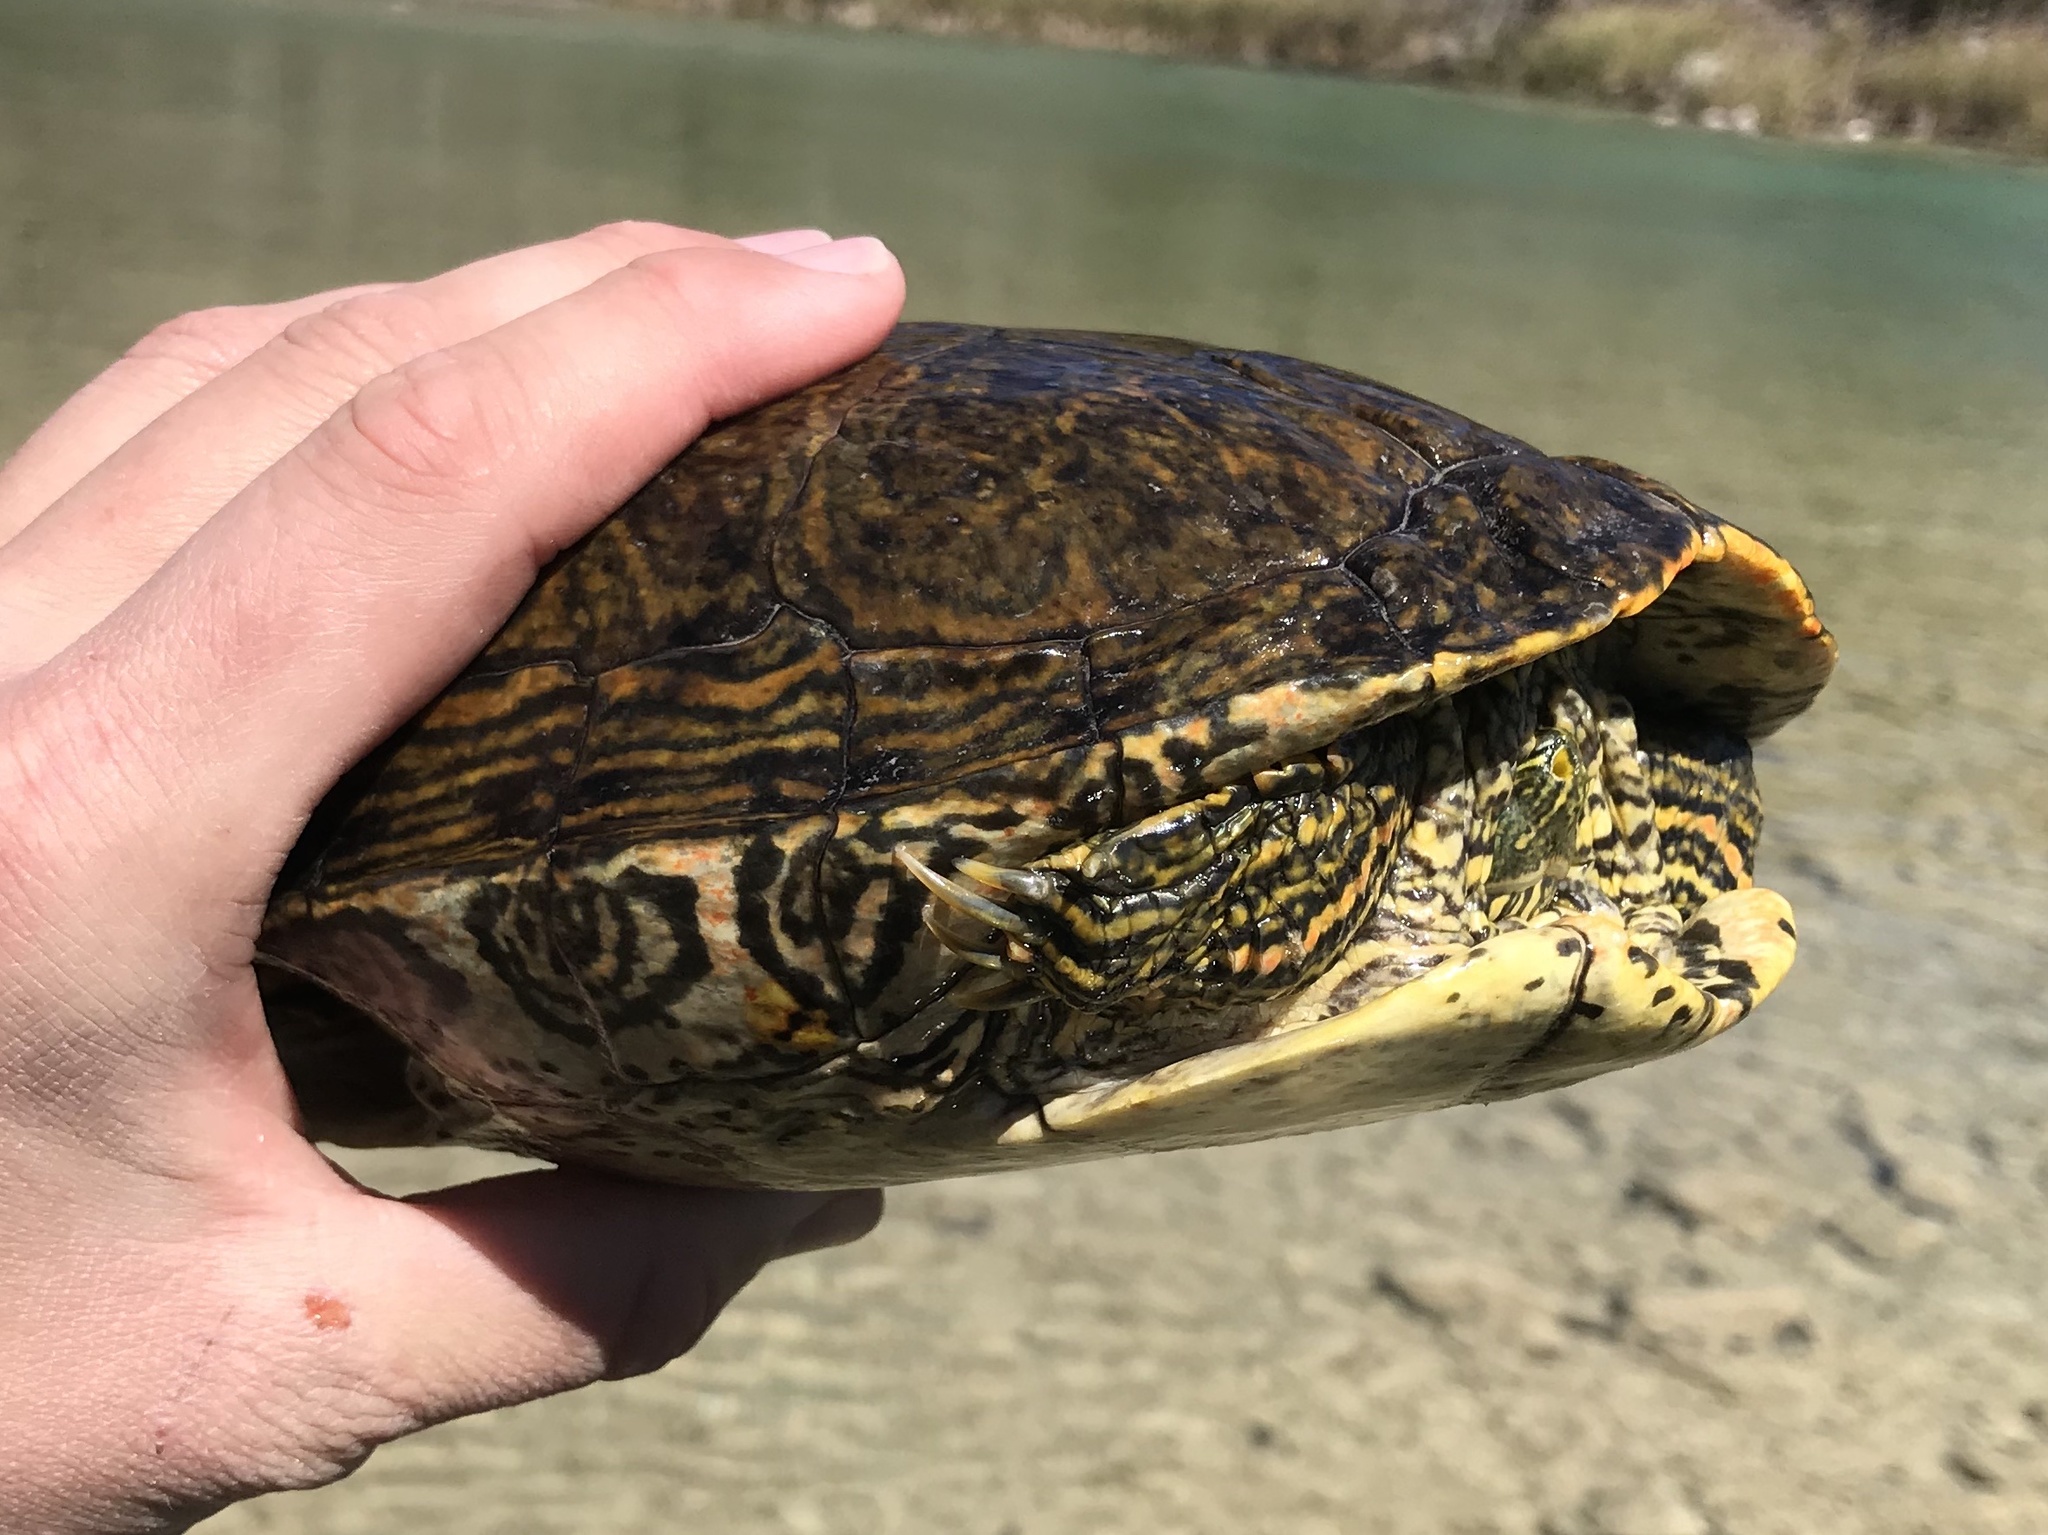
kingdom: Animalia
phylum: Chordata
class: Testudines
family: Emydidae
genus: Pseudemys
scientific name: Pseudemys texana
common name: Texas river cooter
